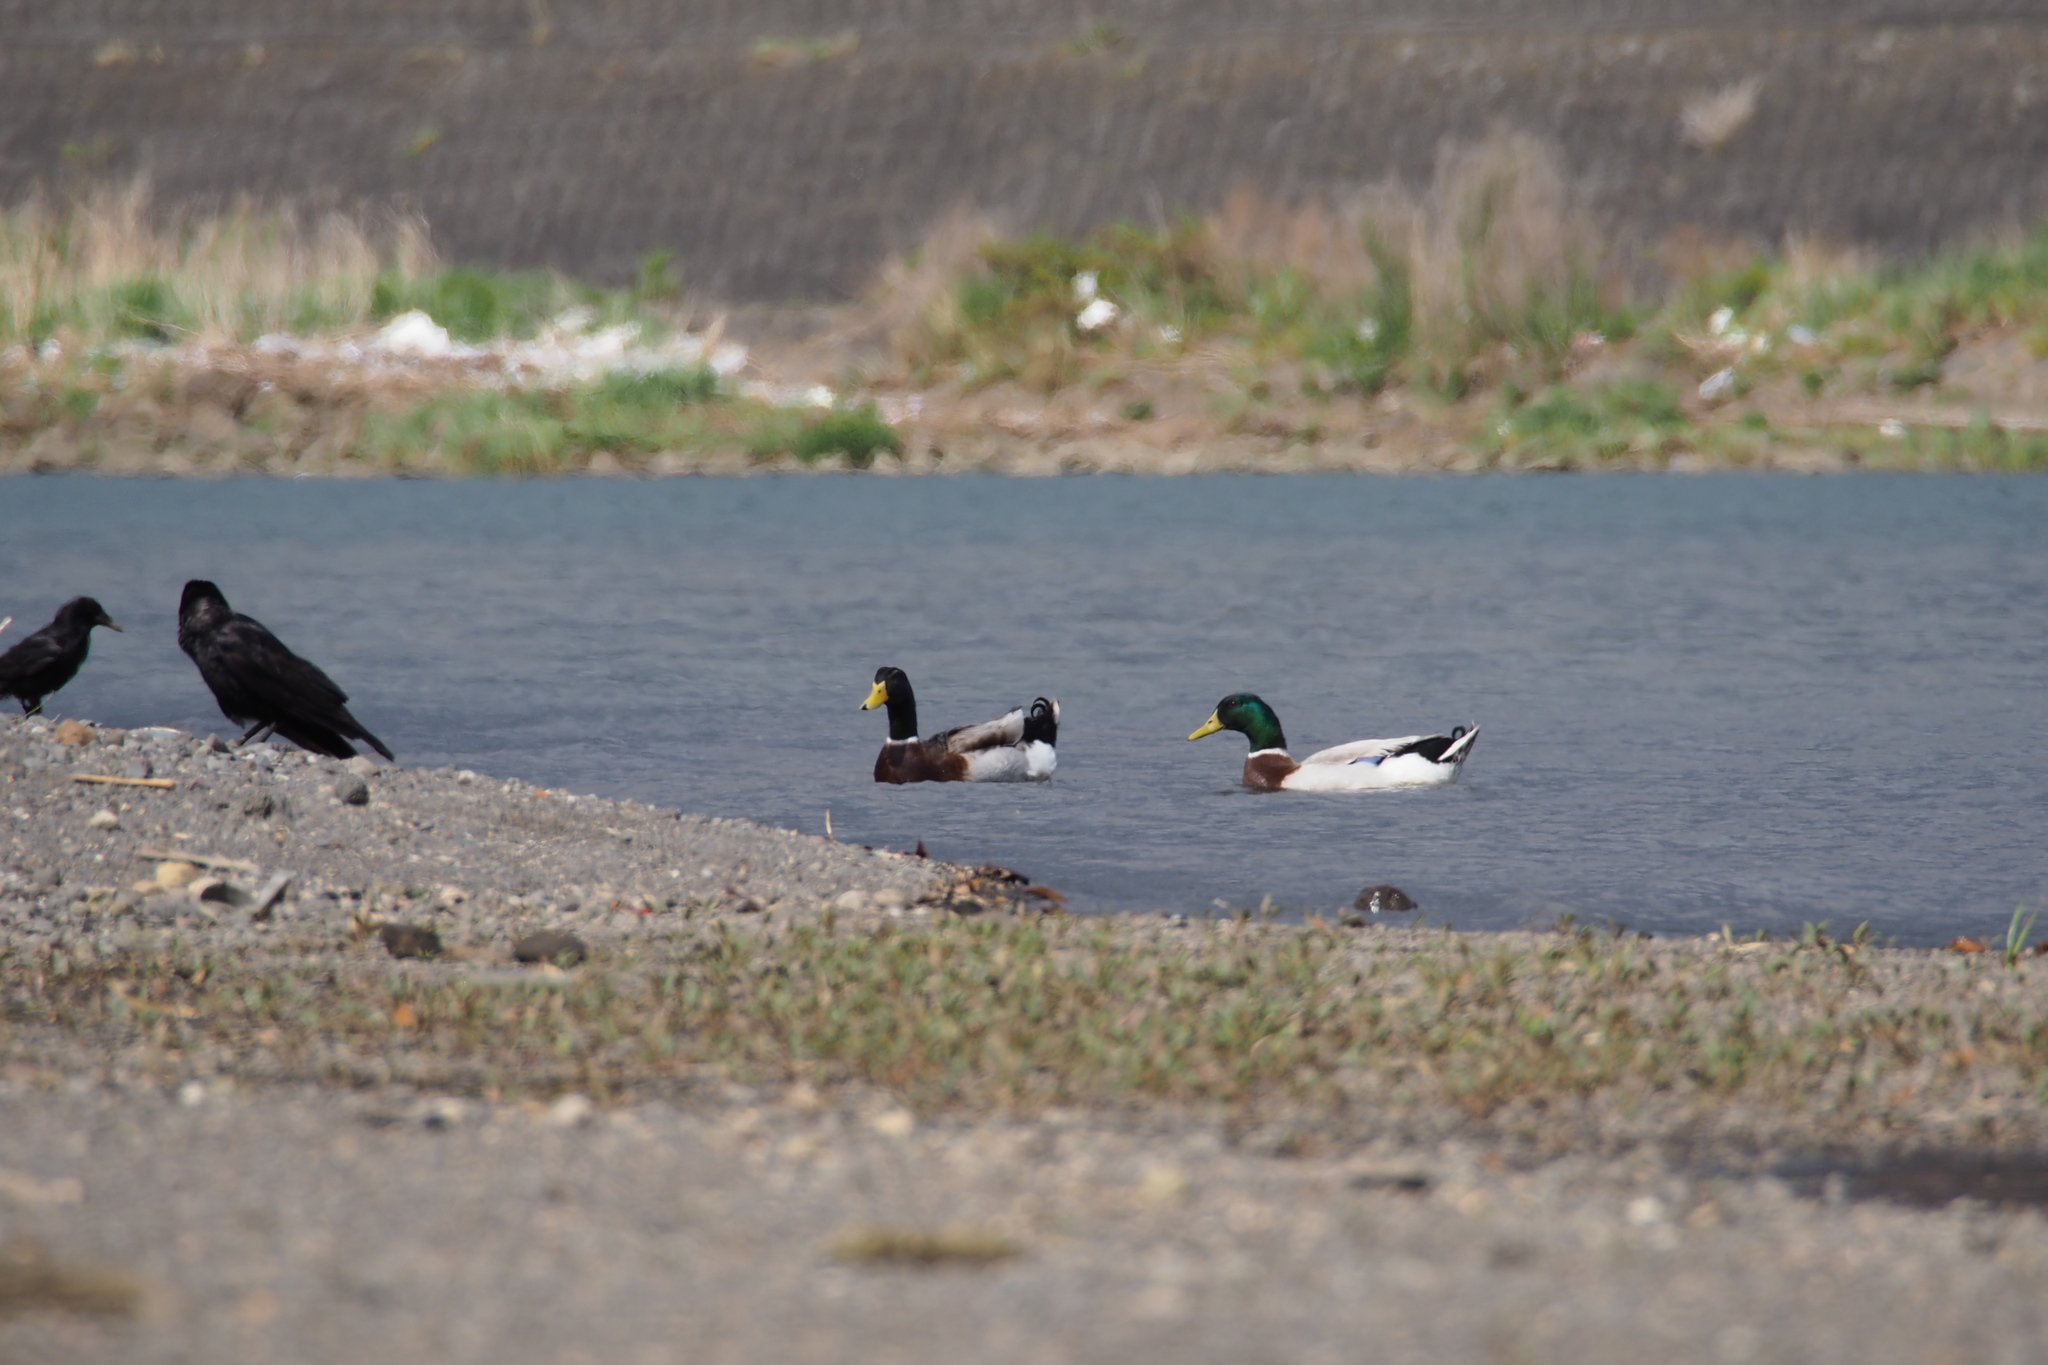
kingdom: Animalia
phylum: Chordata
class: Aves
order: Anseriformes
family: Anatidae
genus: Anas
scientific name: Anas platyrhynchos
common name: Mallard
